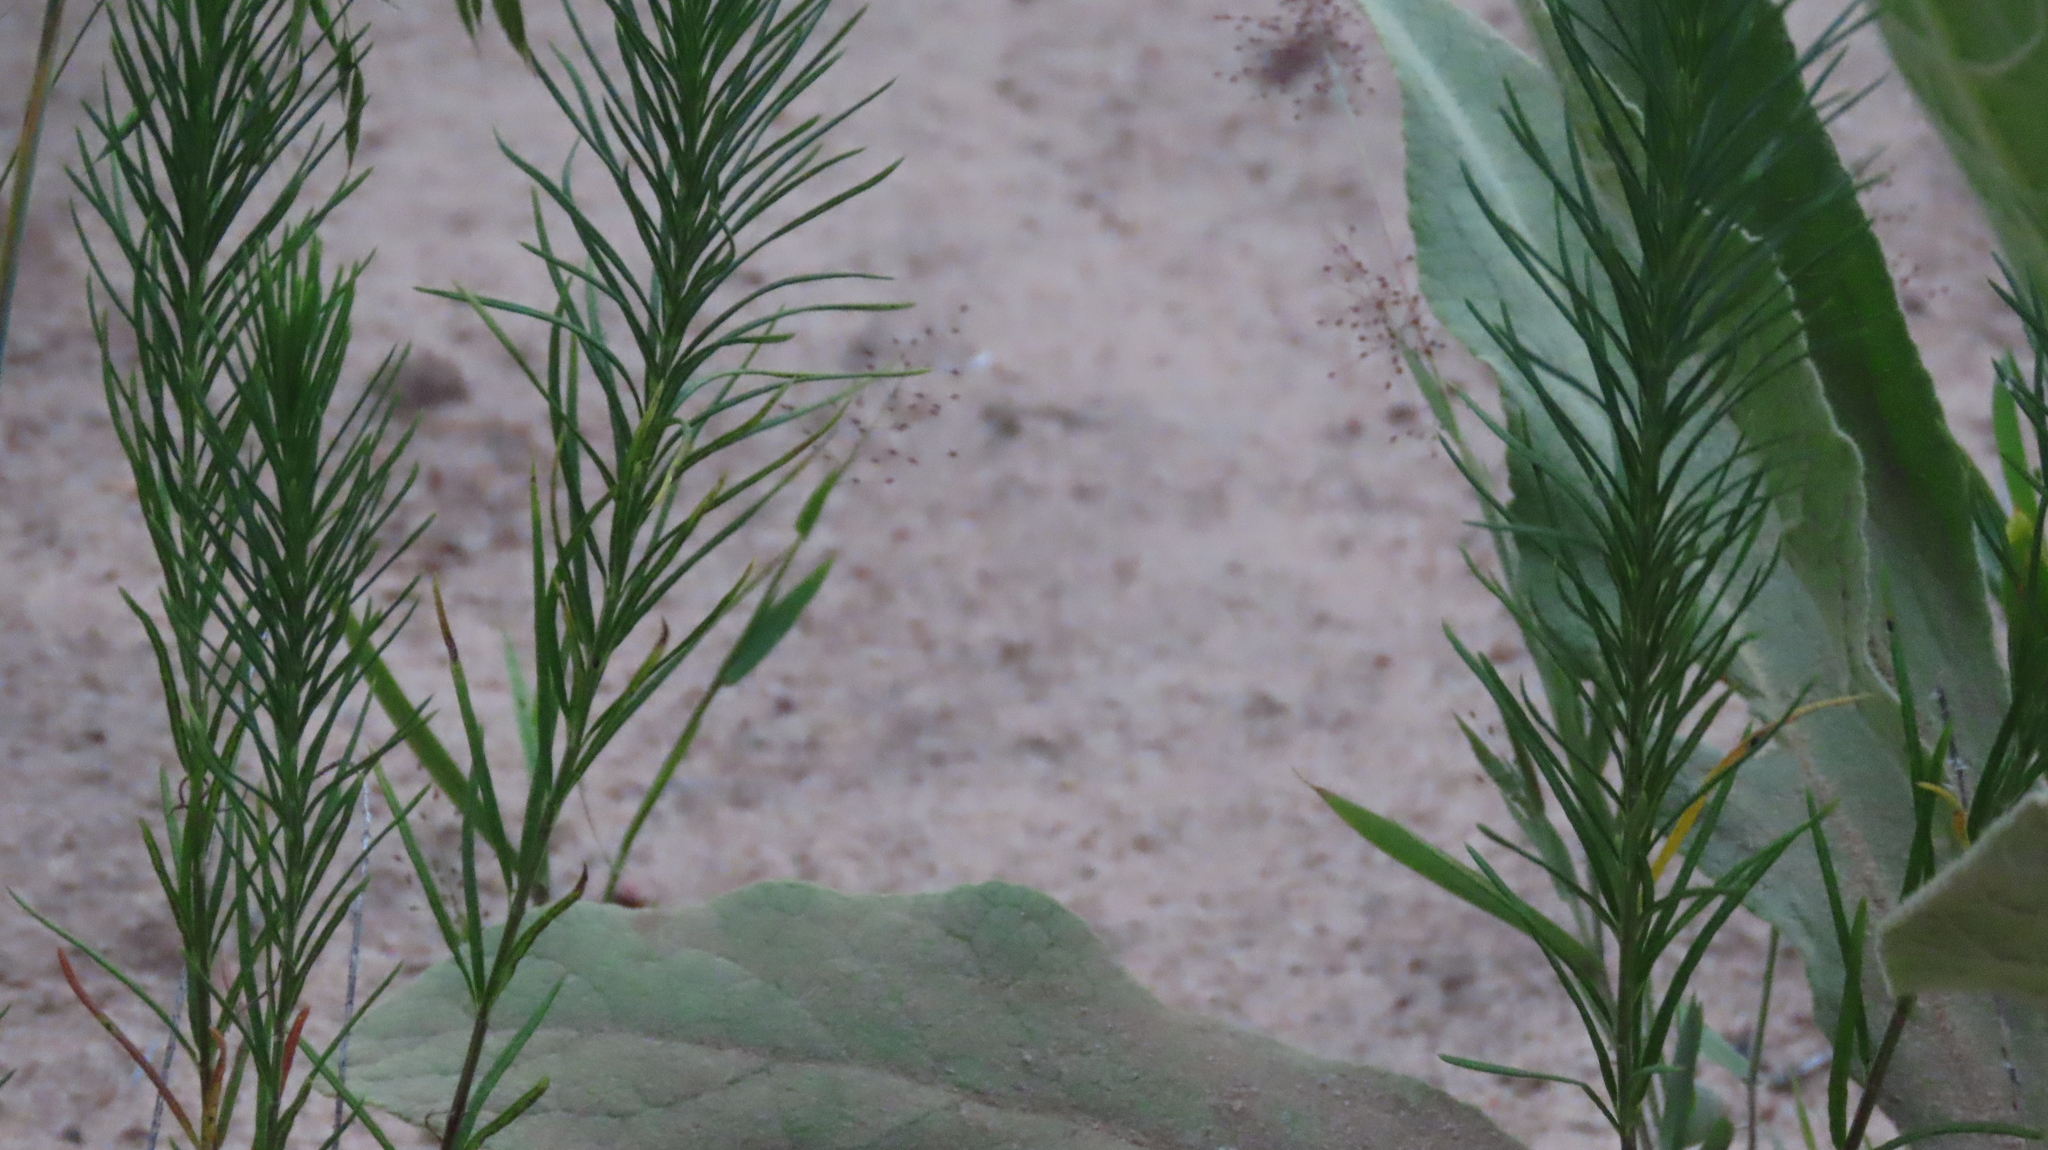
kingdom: Plantae
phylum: Tracheophyta
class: Magnoliopsida
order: Gentianales
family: Apocynaceae
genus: Asclepias
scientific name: Asclepias verticillata
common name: Eastern whorled milkweed
